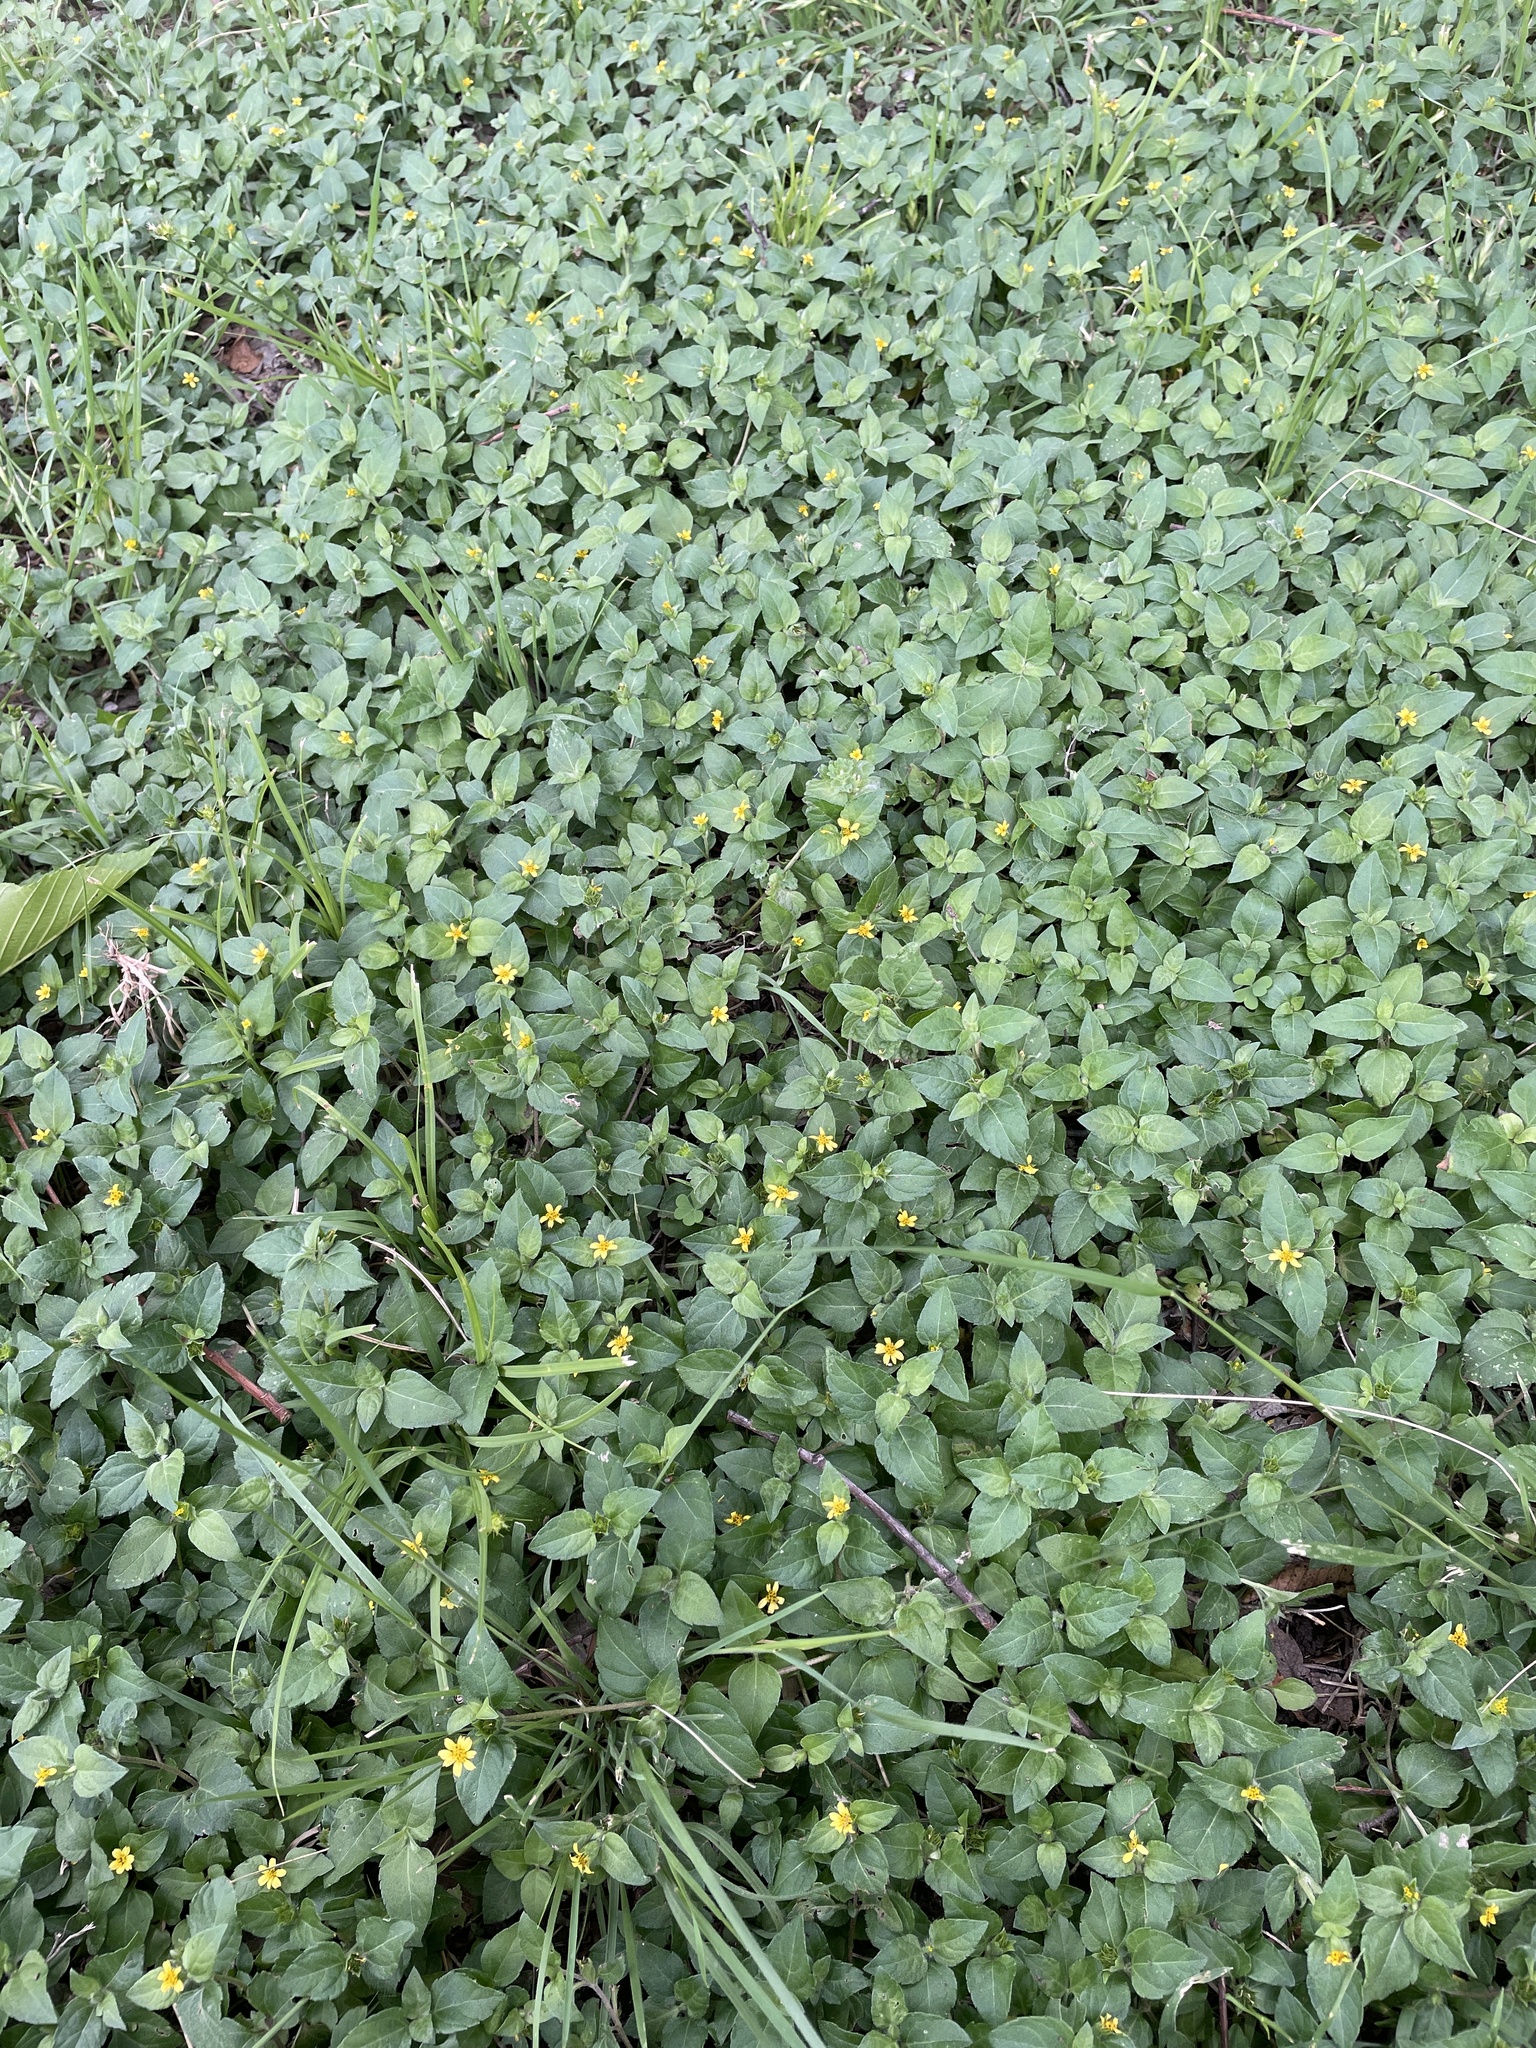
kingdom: Plantae
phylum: Tracheophyta
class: Magnoliopsida
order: Asterales
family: Asteraceae
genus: Calyptocarpus
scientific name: Calyptocarpus vialis
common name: Straggler daisy
